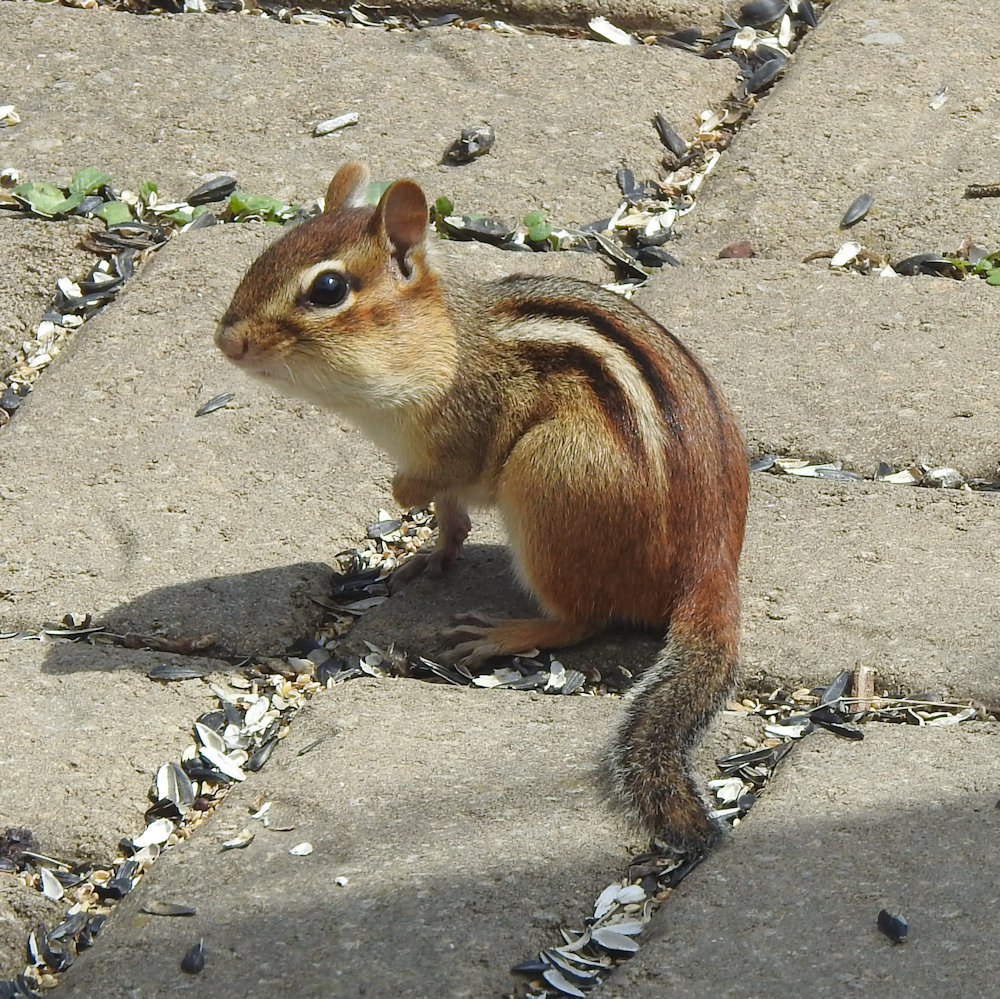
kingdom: Animalia
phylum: Chordata
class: Mammalia
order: Rodentia
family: Sciuridae
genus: Tamias
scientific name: Tamias striatus
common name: Eastern chipmunk
